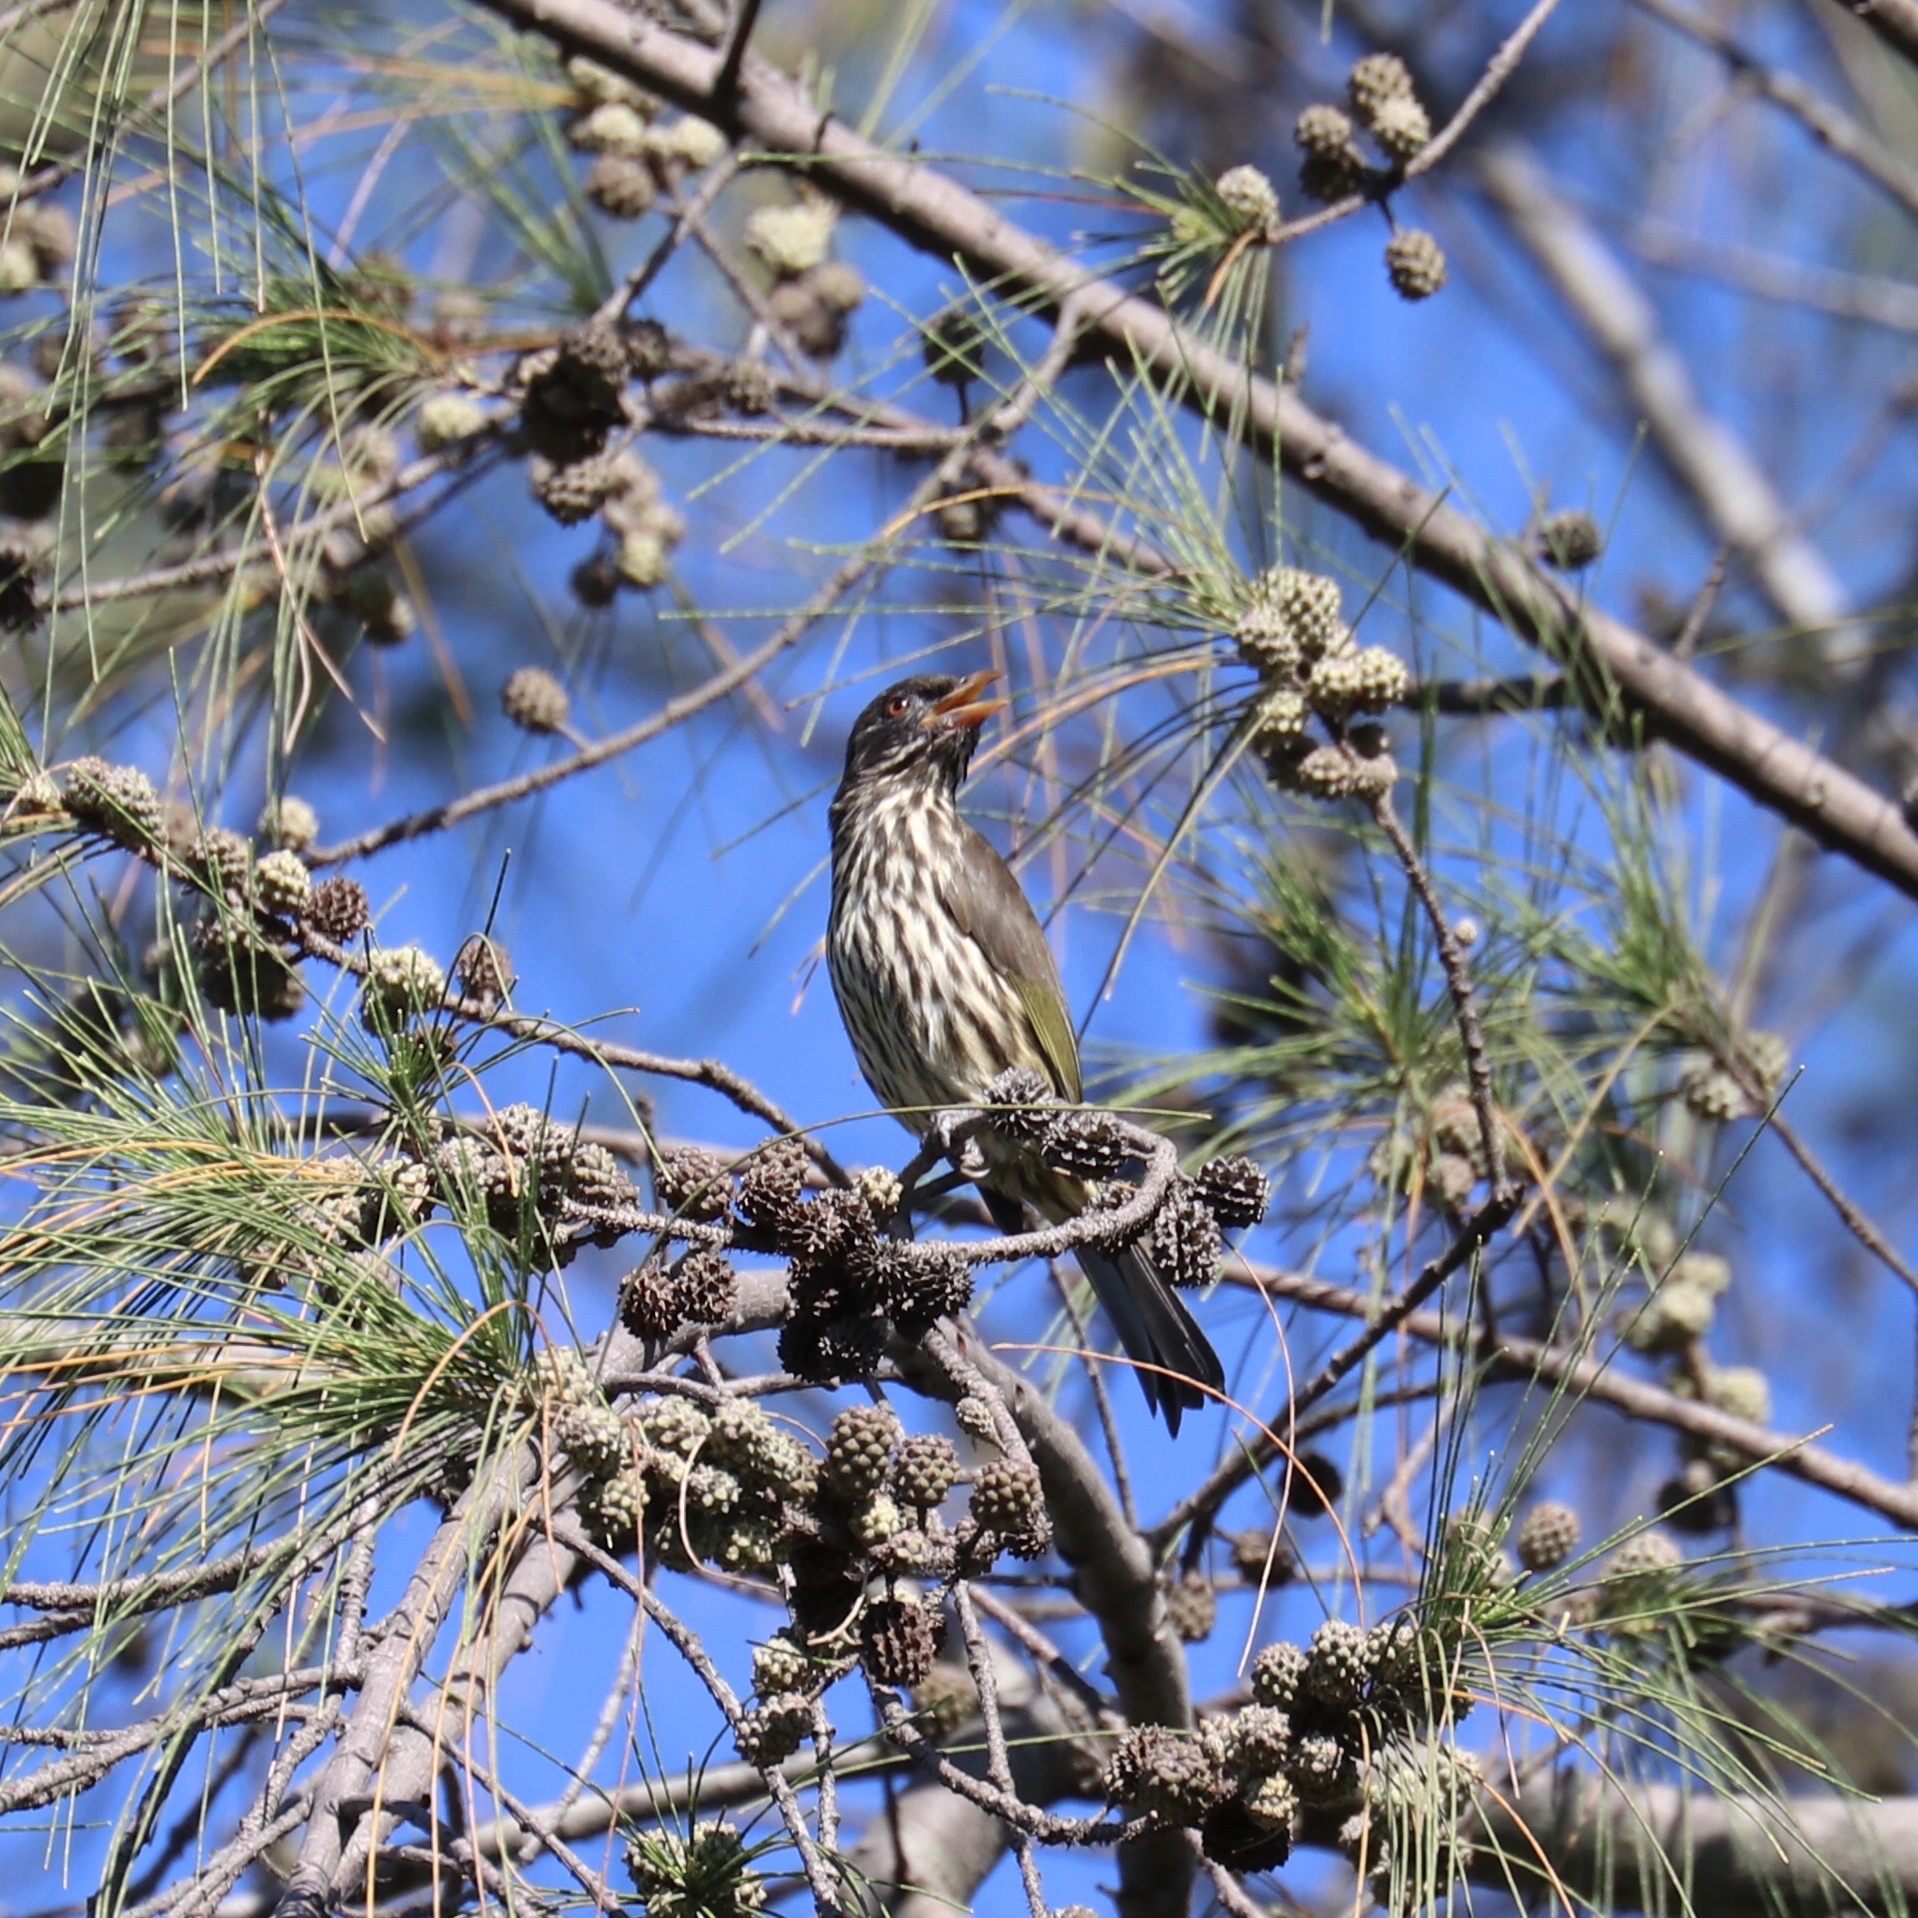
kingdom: Animalia
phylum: Chordata
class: Aves
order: Passeriformes
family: Dulidae
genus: Dulus
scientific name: Dulus dominicus
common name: Palmchat
